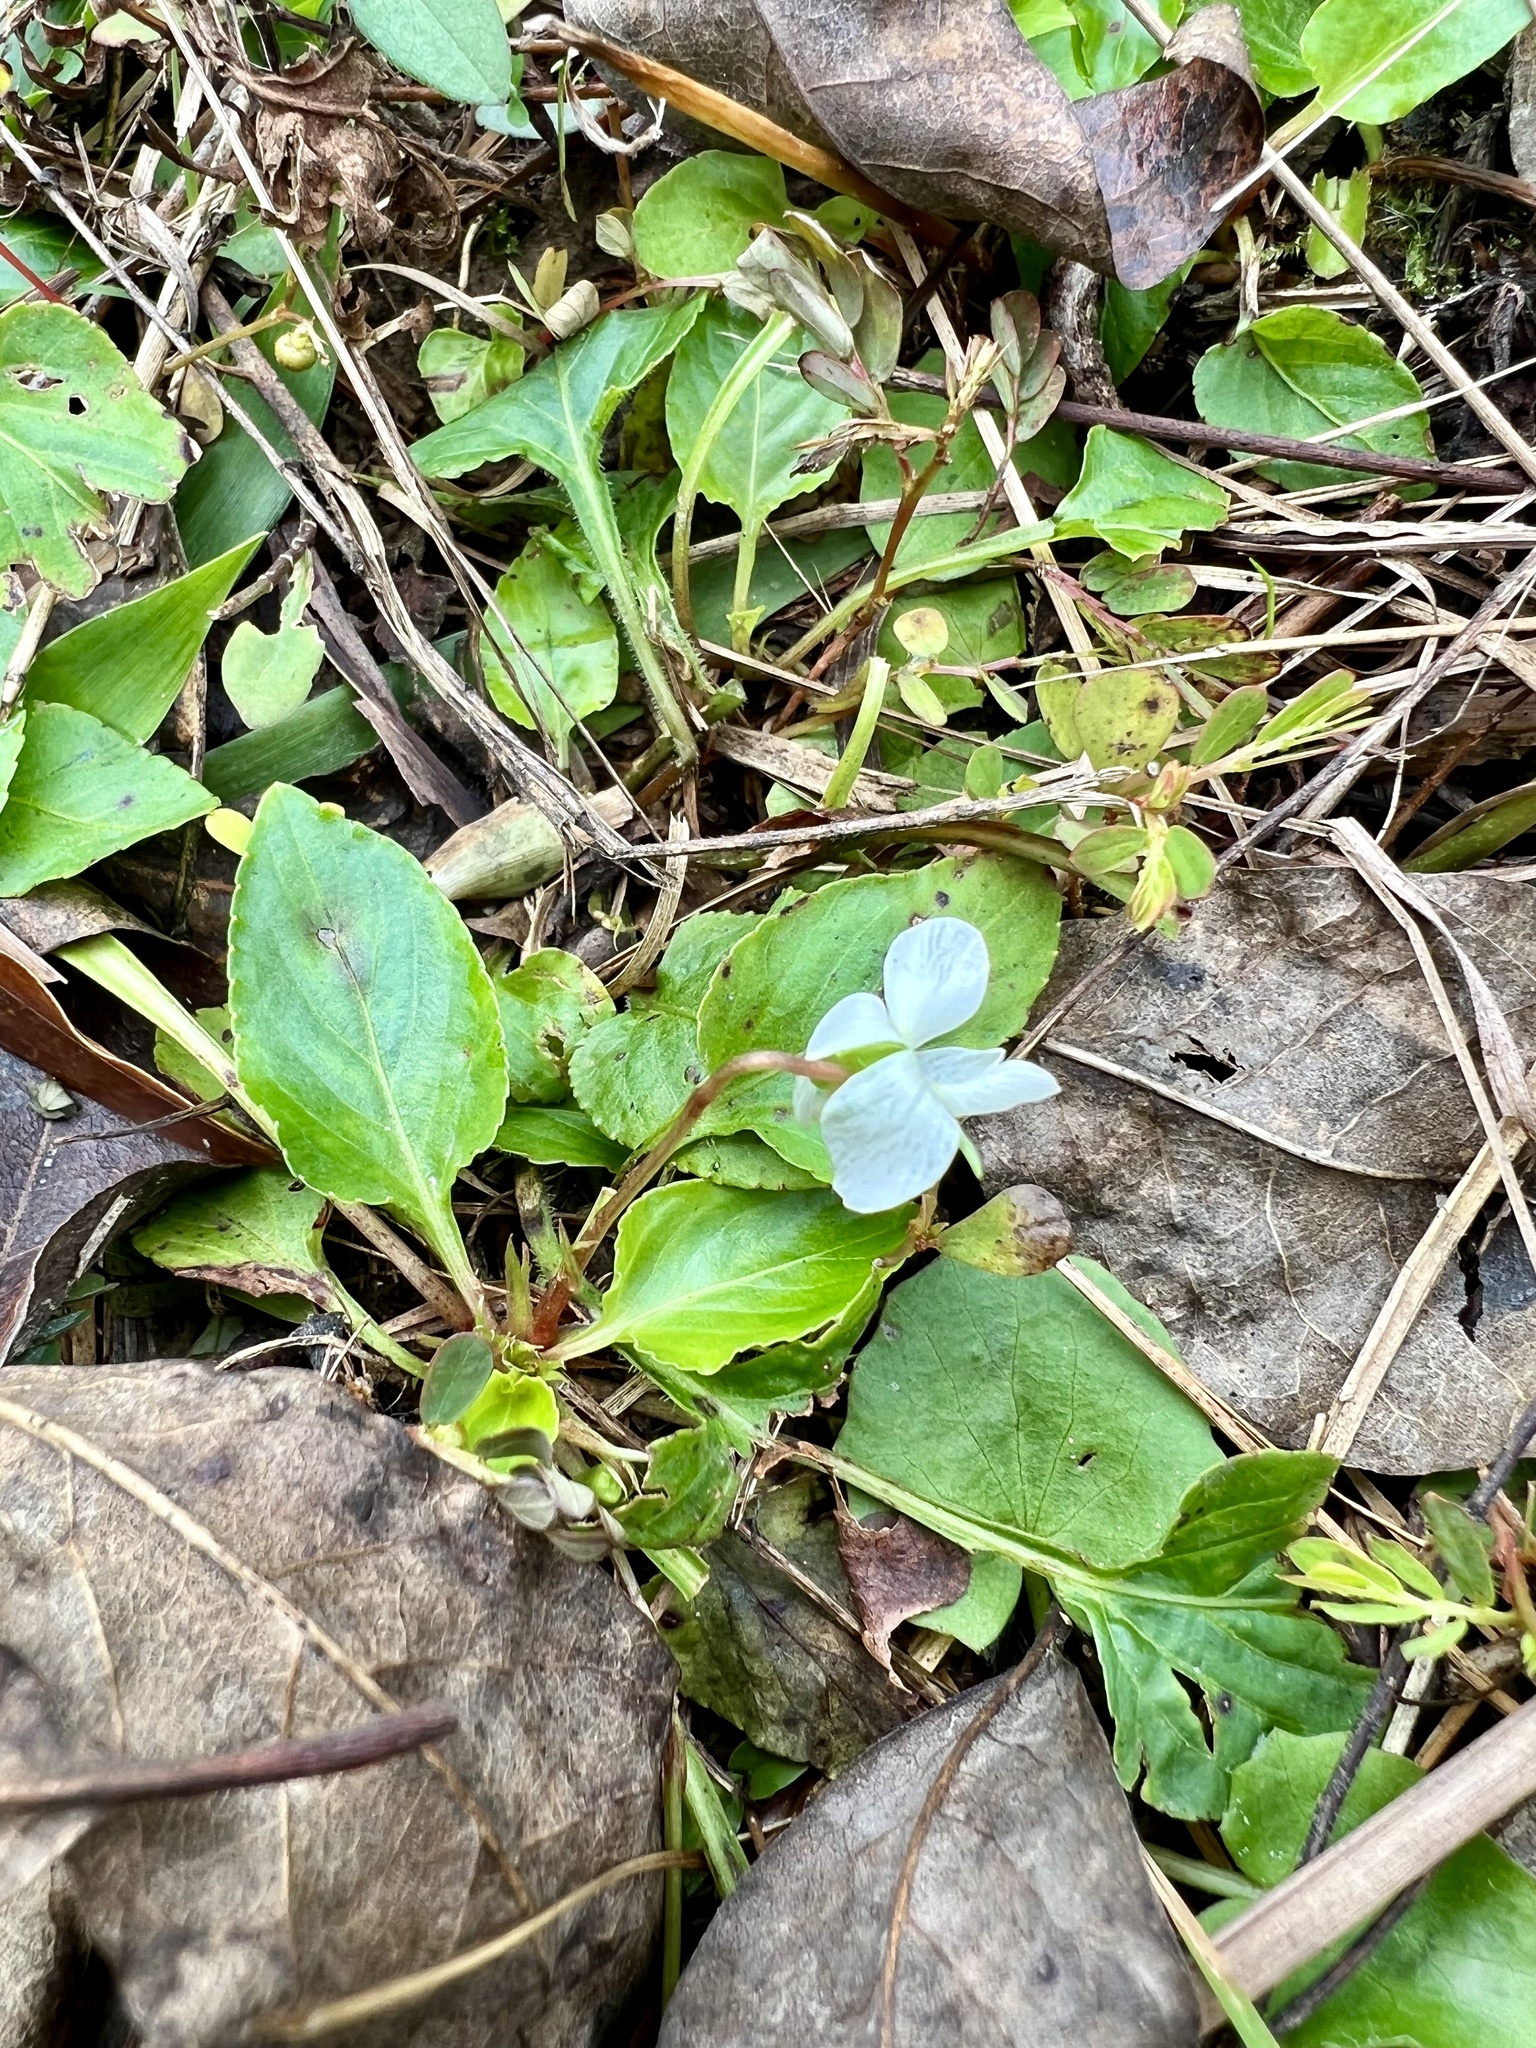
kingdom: Plantae
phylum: Tracheophyta
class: Magnoliopsida
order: Malpighiales
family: Violaceae
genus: Viola
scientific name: Viola primulifolia
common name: Primrose-leaf violet
